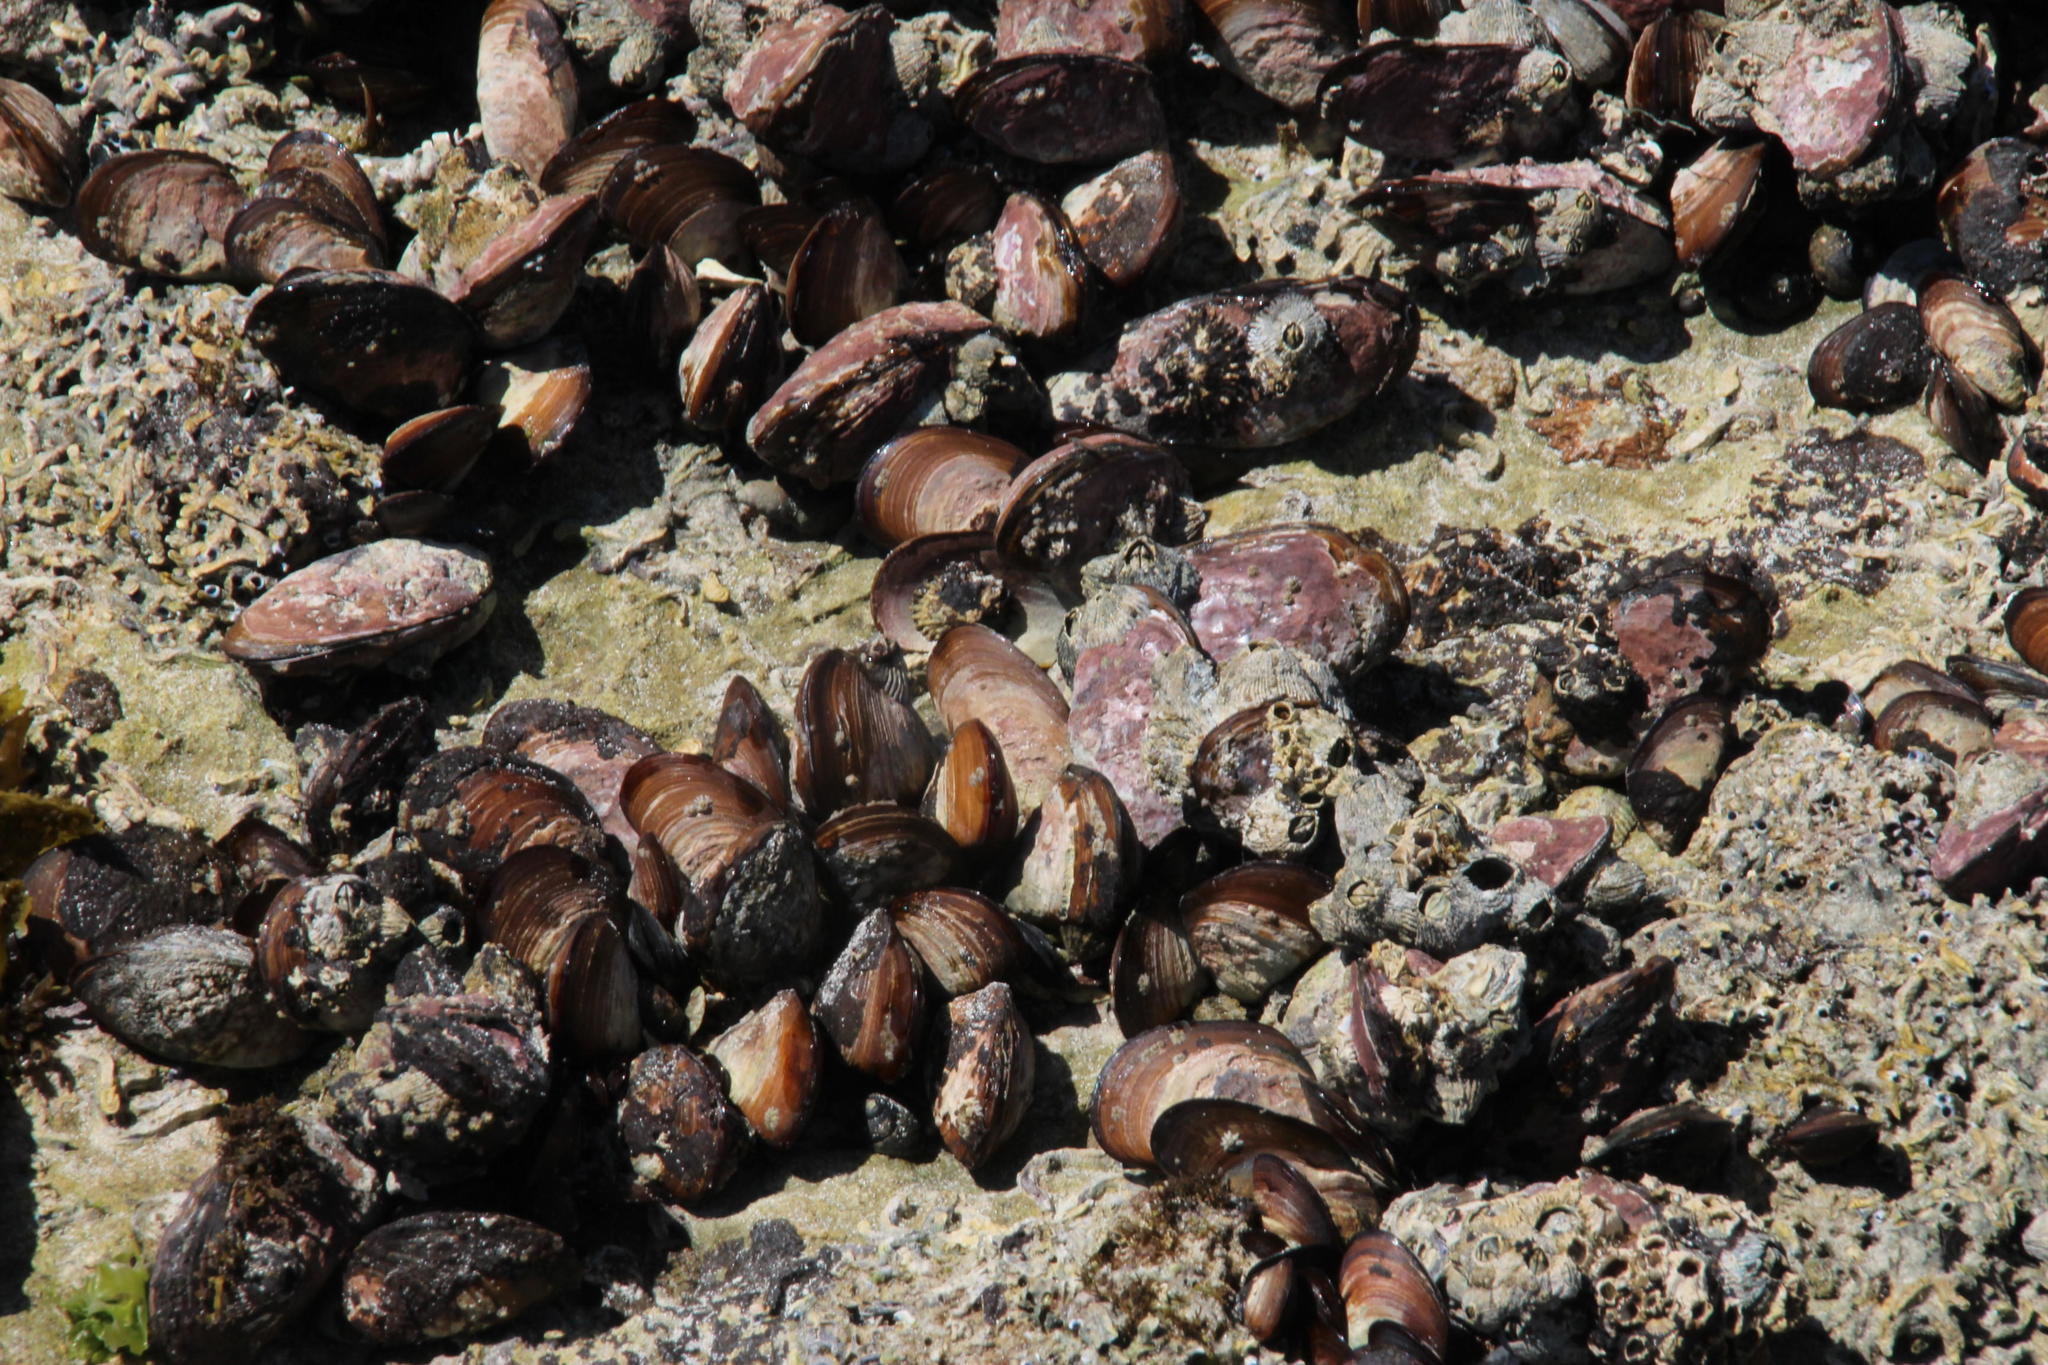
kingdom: Animalia
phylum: Mollusca
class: Bivalvia
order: Mytilida
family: Mytilidae
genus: Perna
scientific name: Perna perna
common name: Mexilhao mussel
